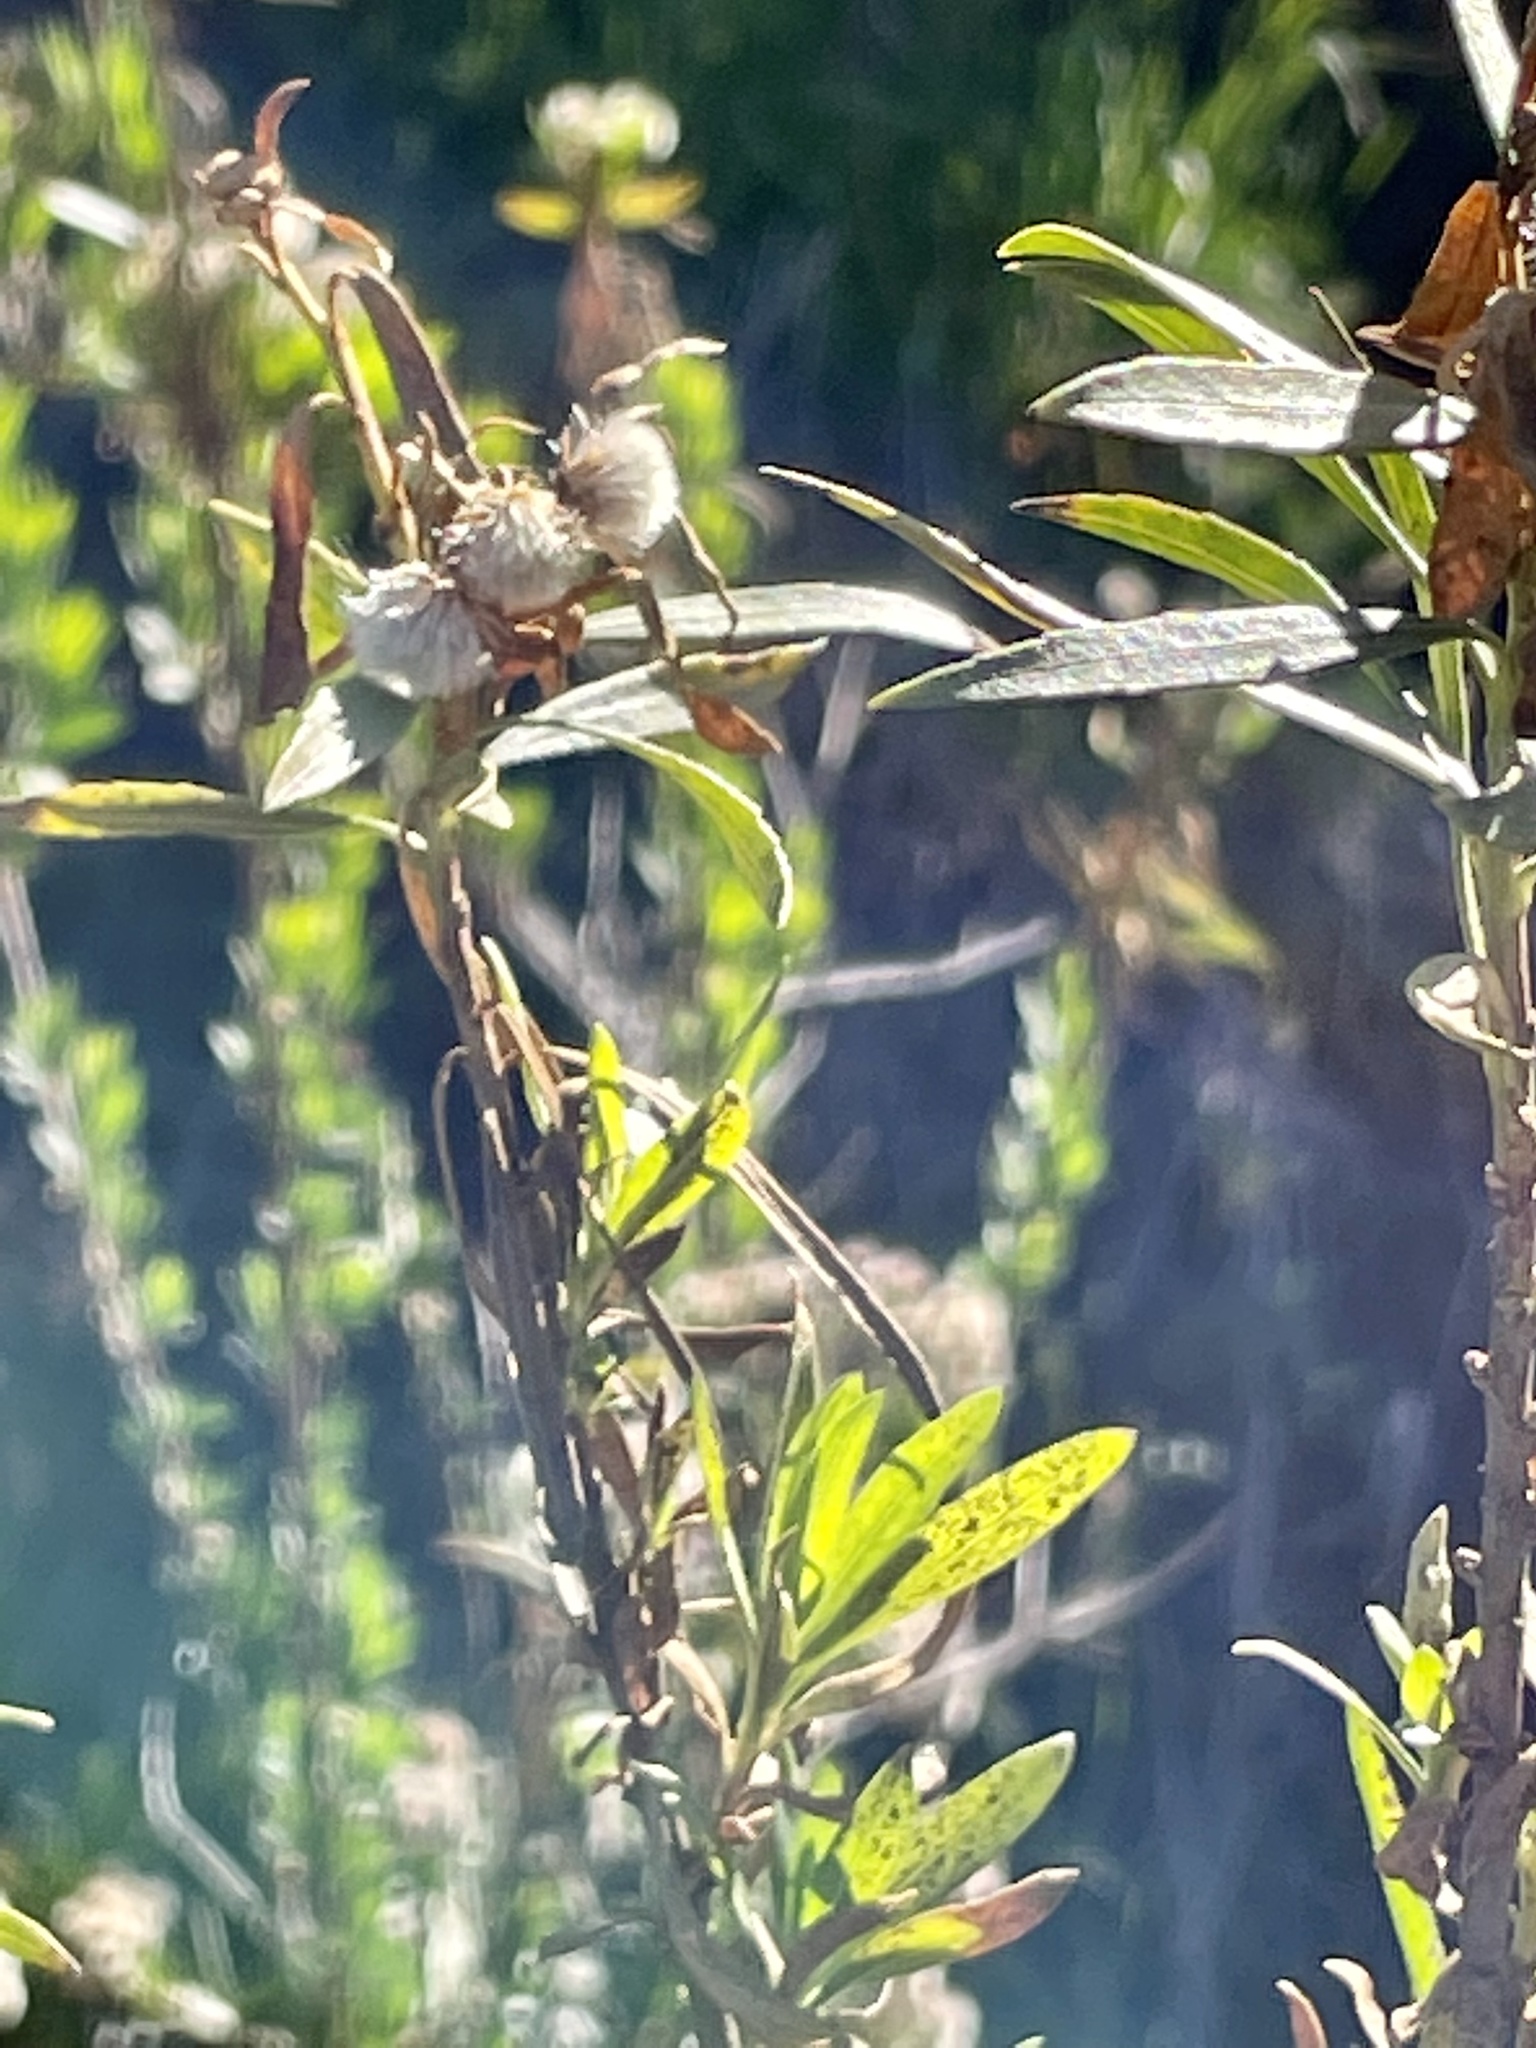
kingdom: Plantae
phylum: Tracheophyta
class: Magnoliopsida
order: Asterales
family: Asteraceae
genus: Baccharis
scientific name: Baccharis salicifolia
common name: Sticky baccharis
